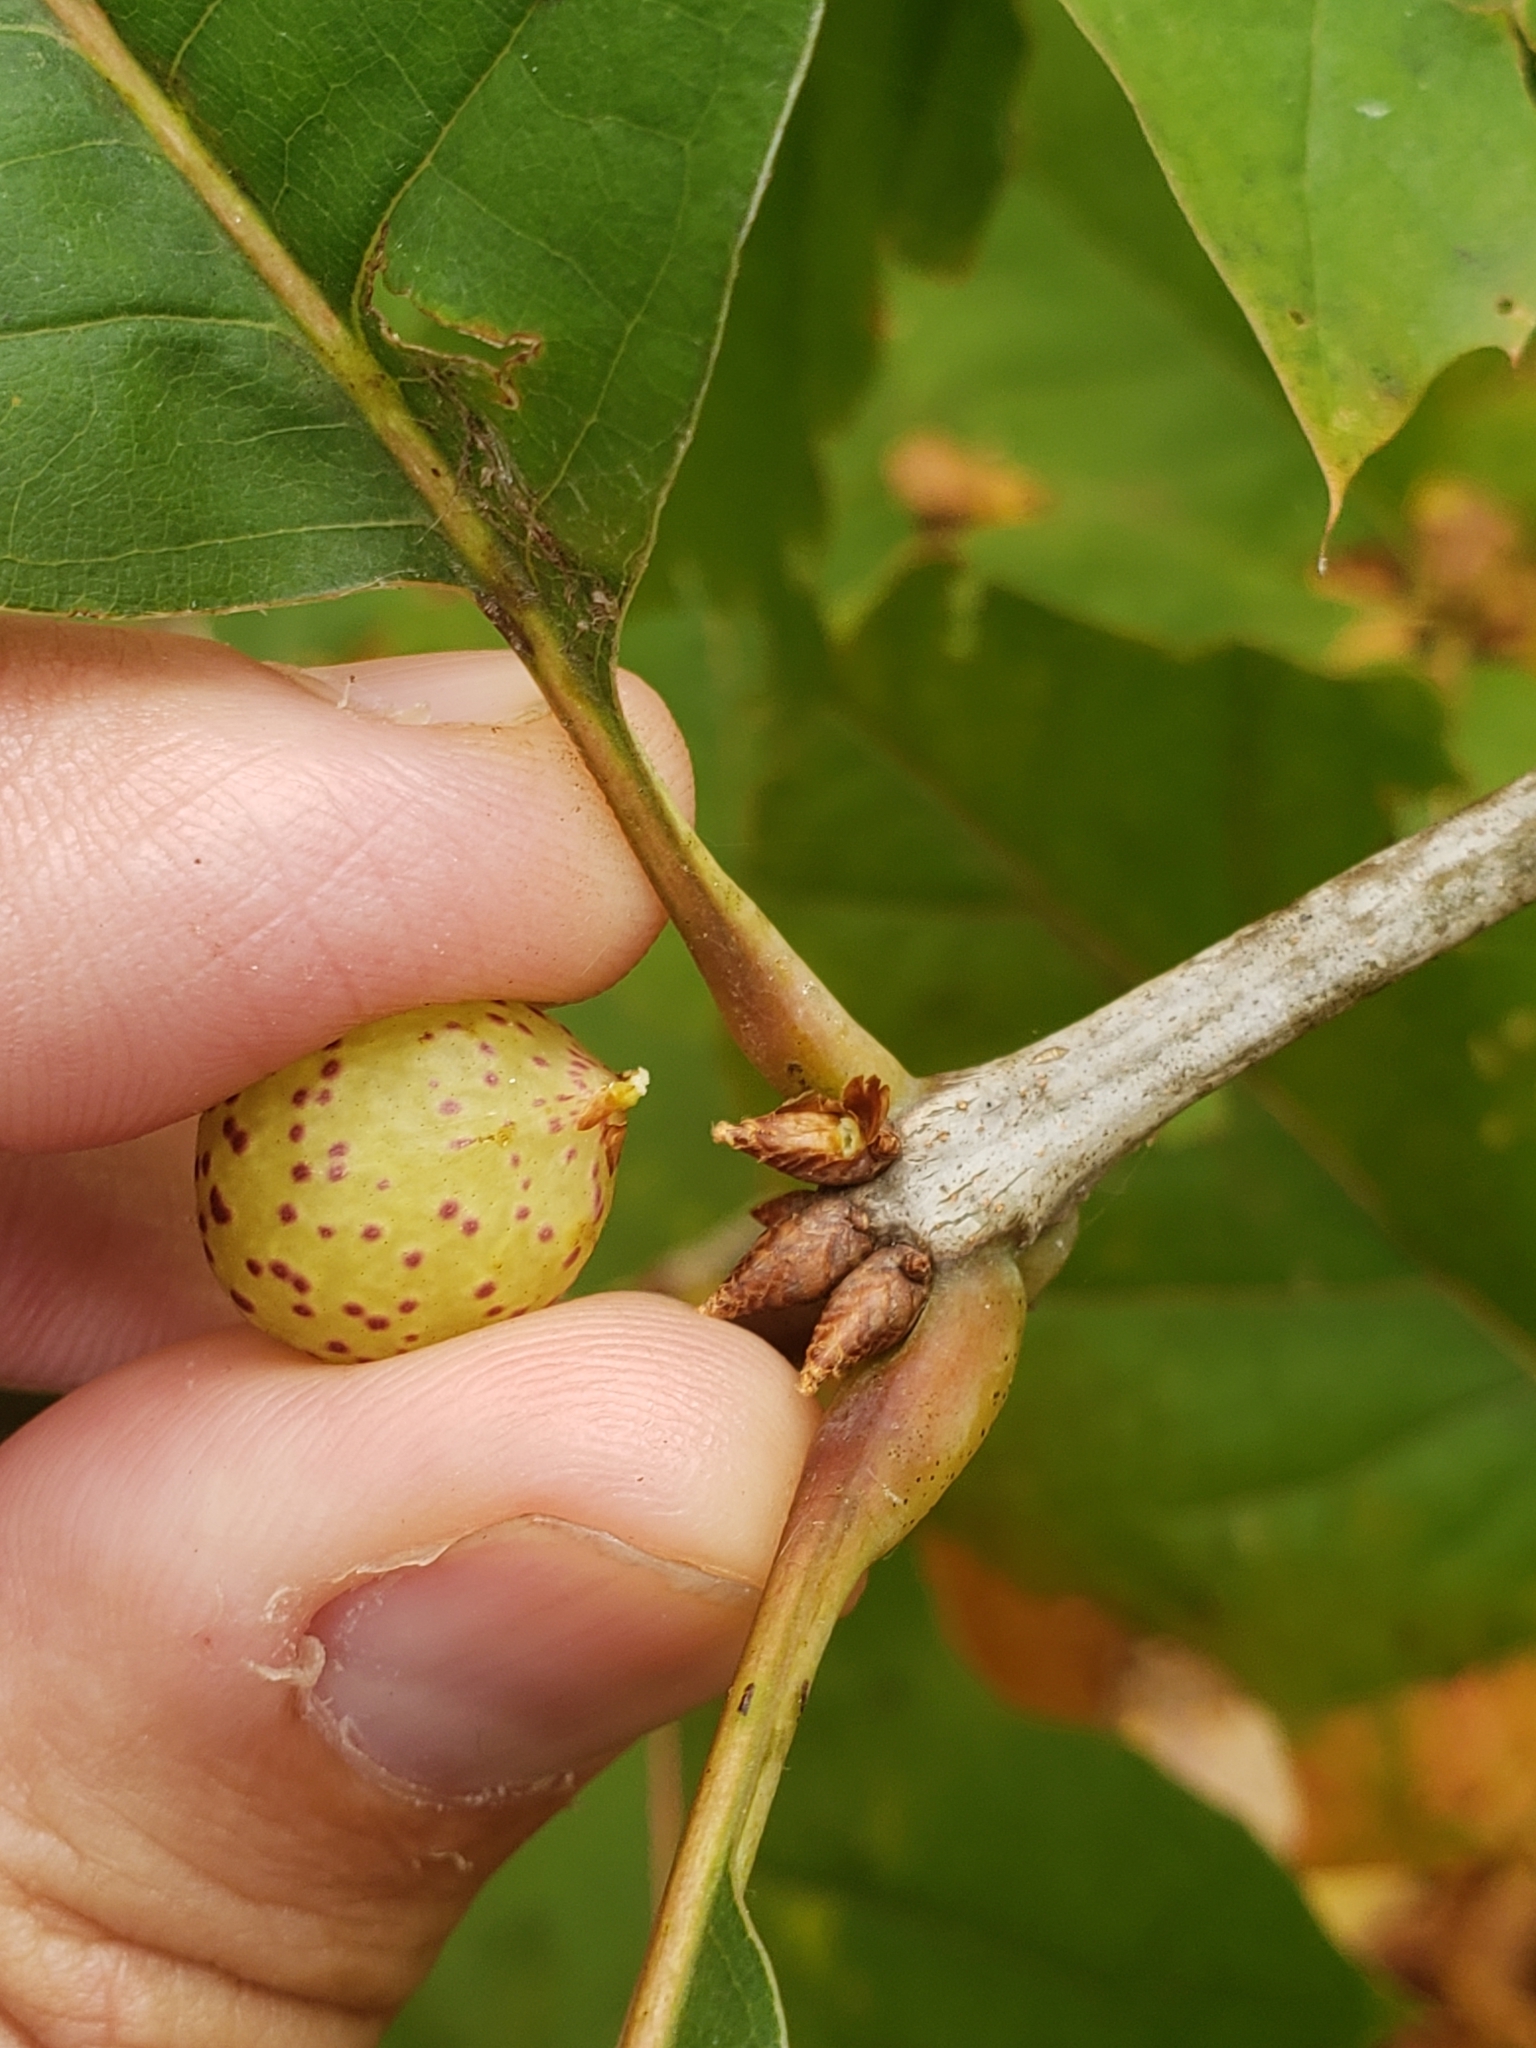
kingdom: Animalia
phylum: Arthropoda
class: Insecta
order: Hymenoptera
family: Cynipidae
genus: Amphibolips
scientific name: Amphibolips
